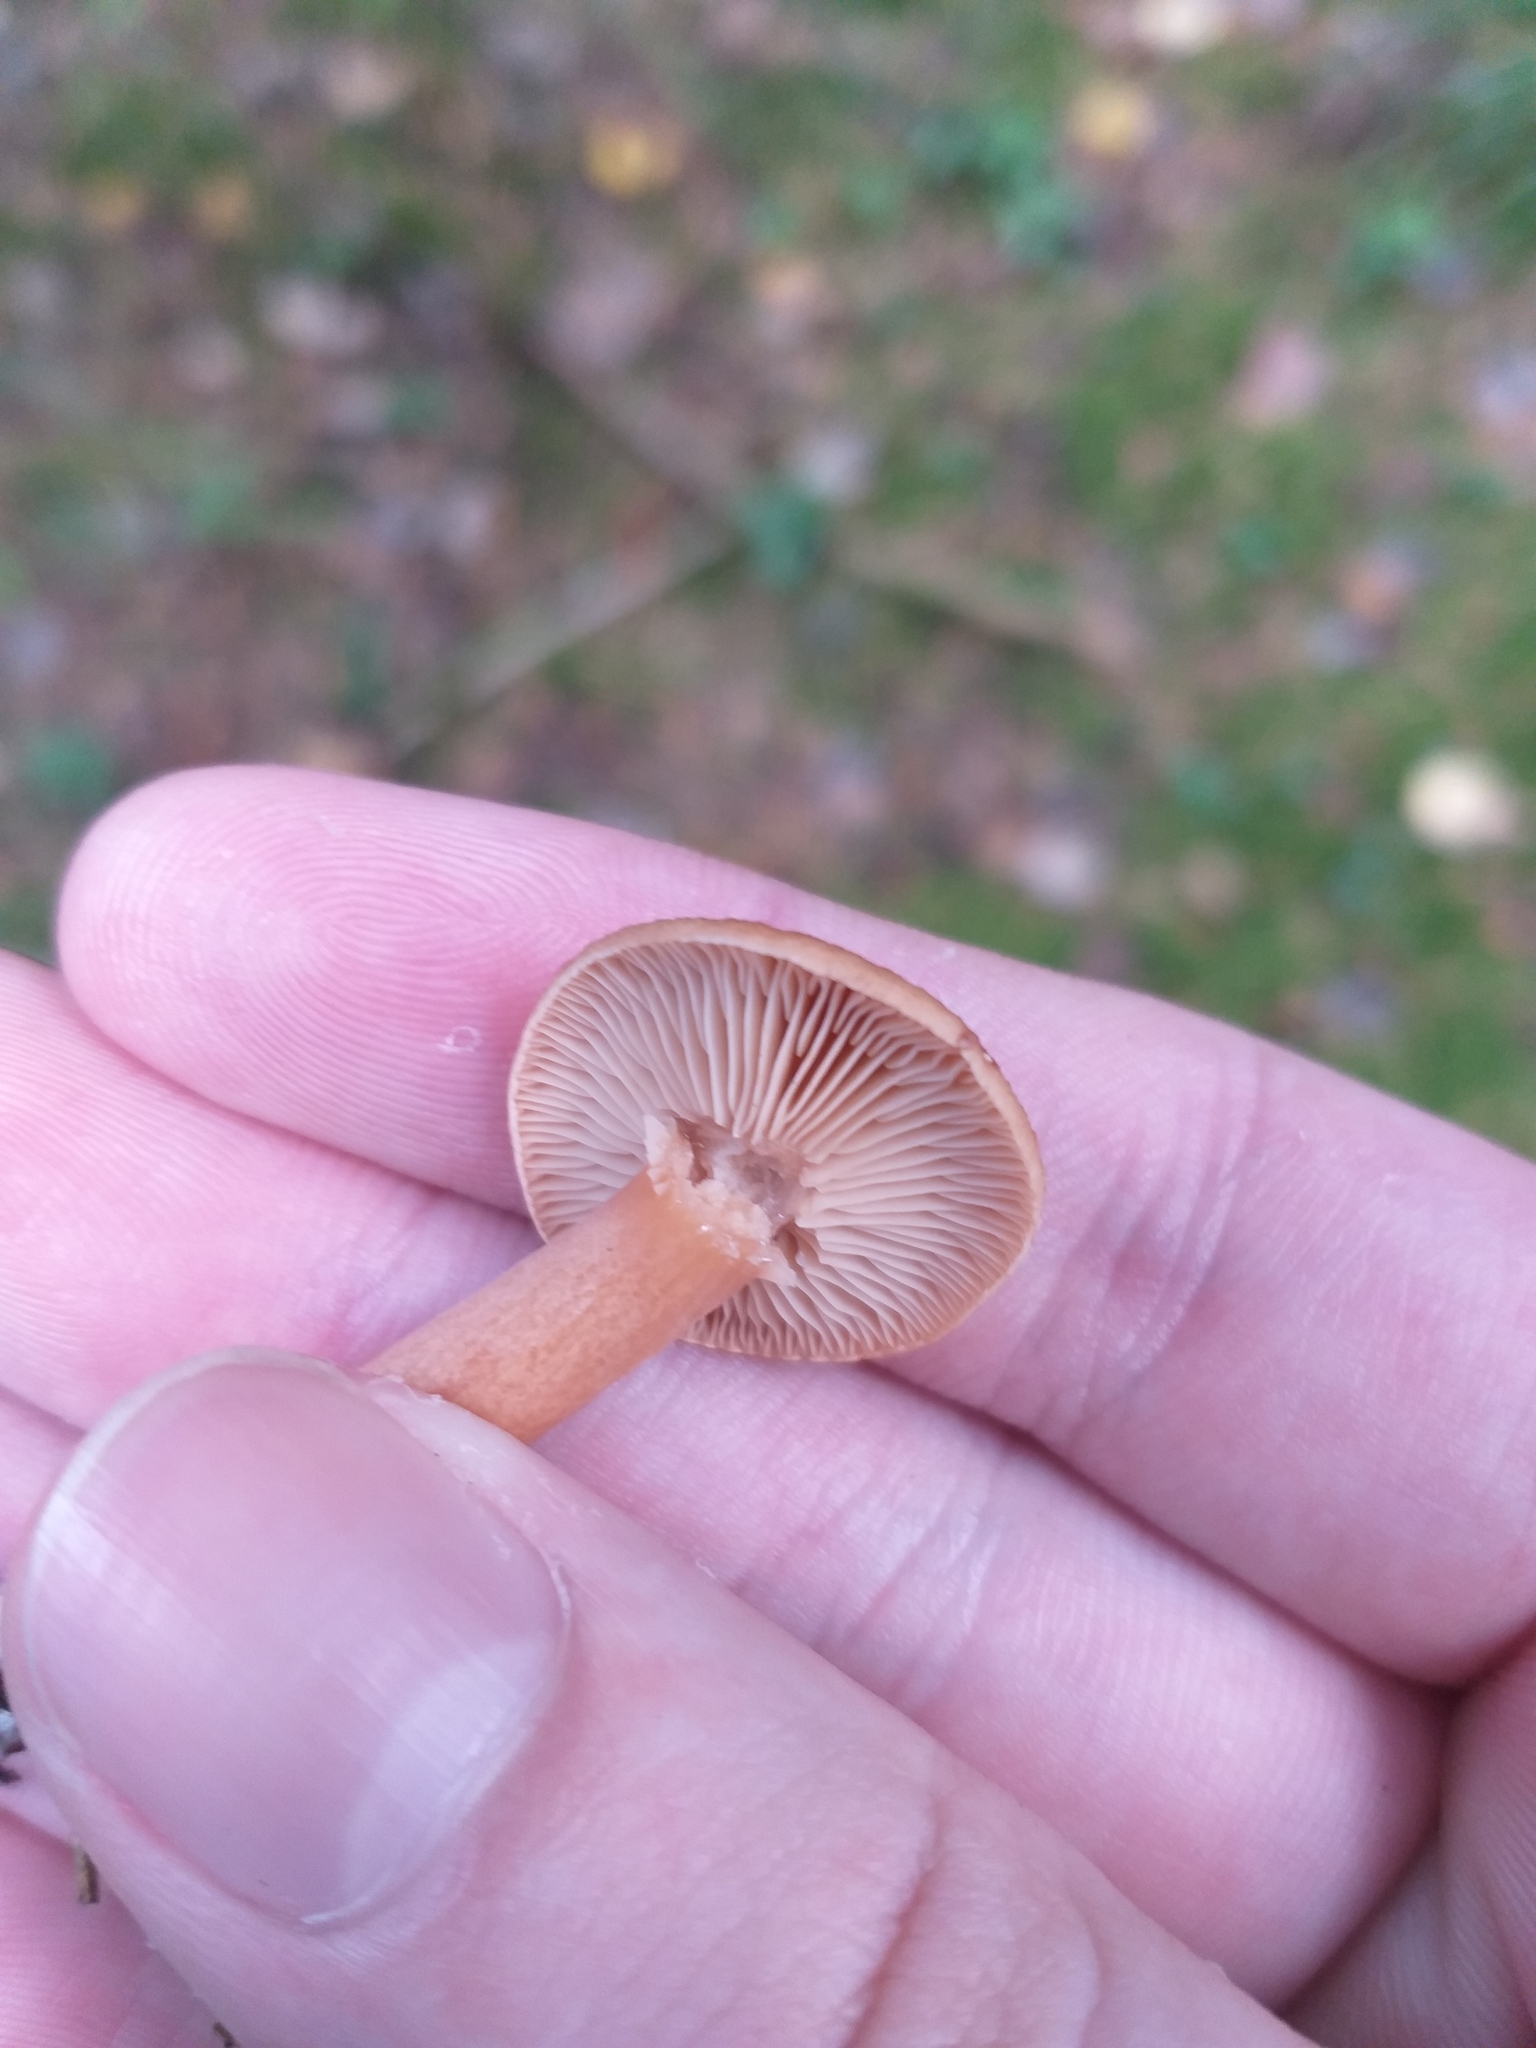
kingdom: Fungi
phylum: Basidiomycota
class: Agaricomycetes
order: Russulales
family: Russulaceae
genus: Lactarius
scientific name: Lactarius aurantiacus
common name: Orange milkcap
